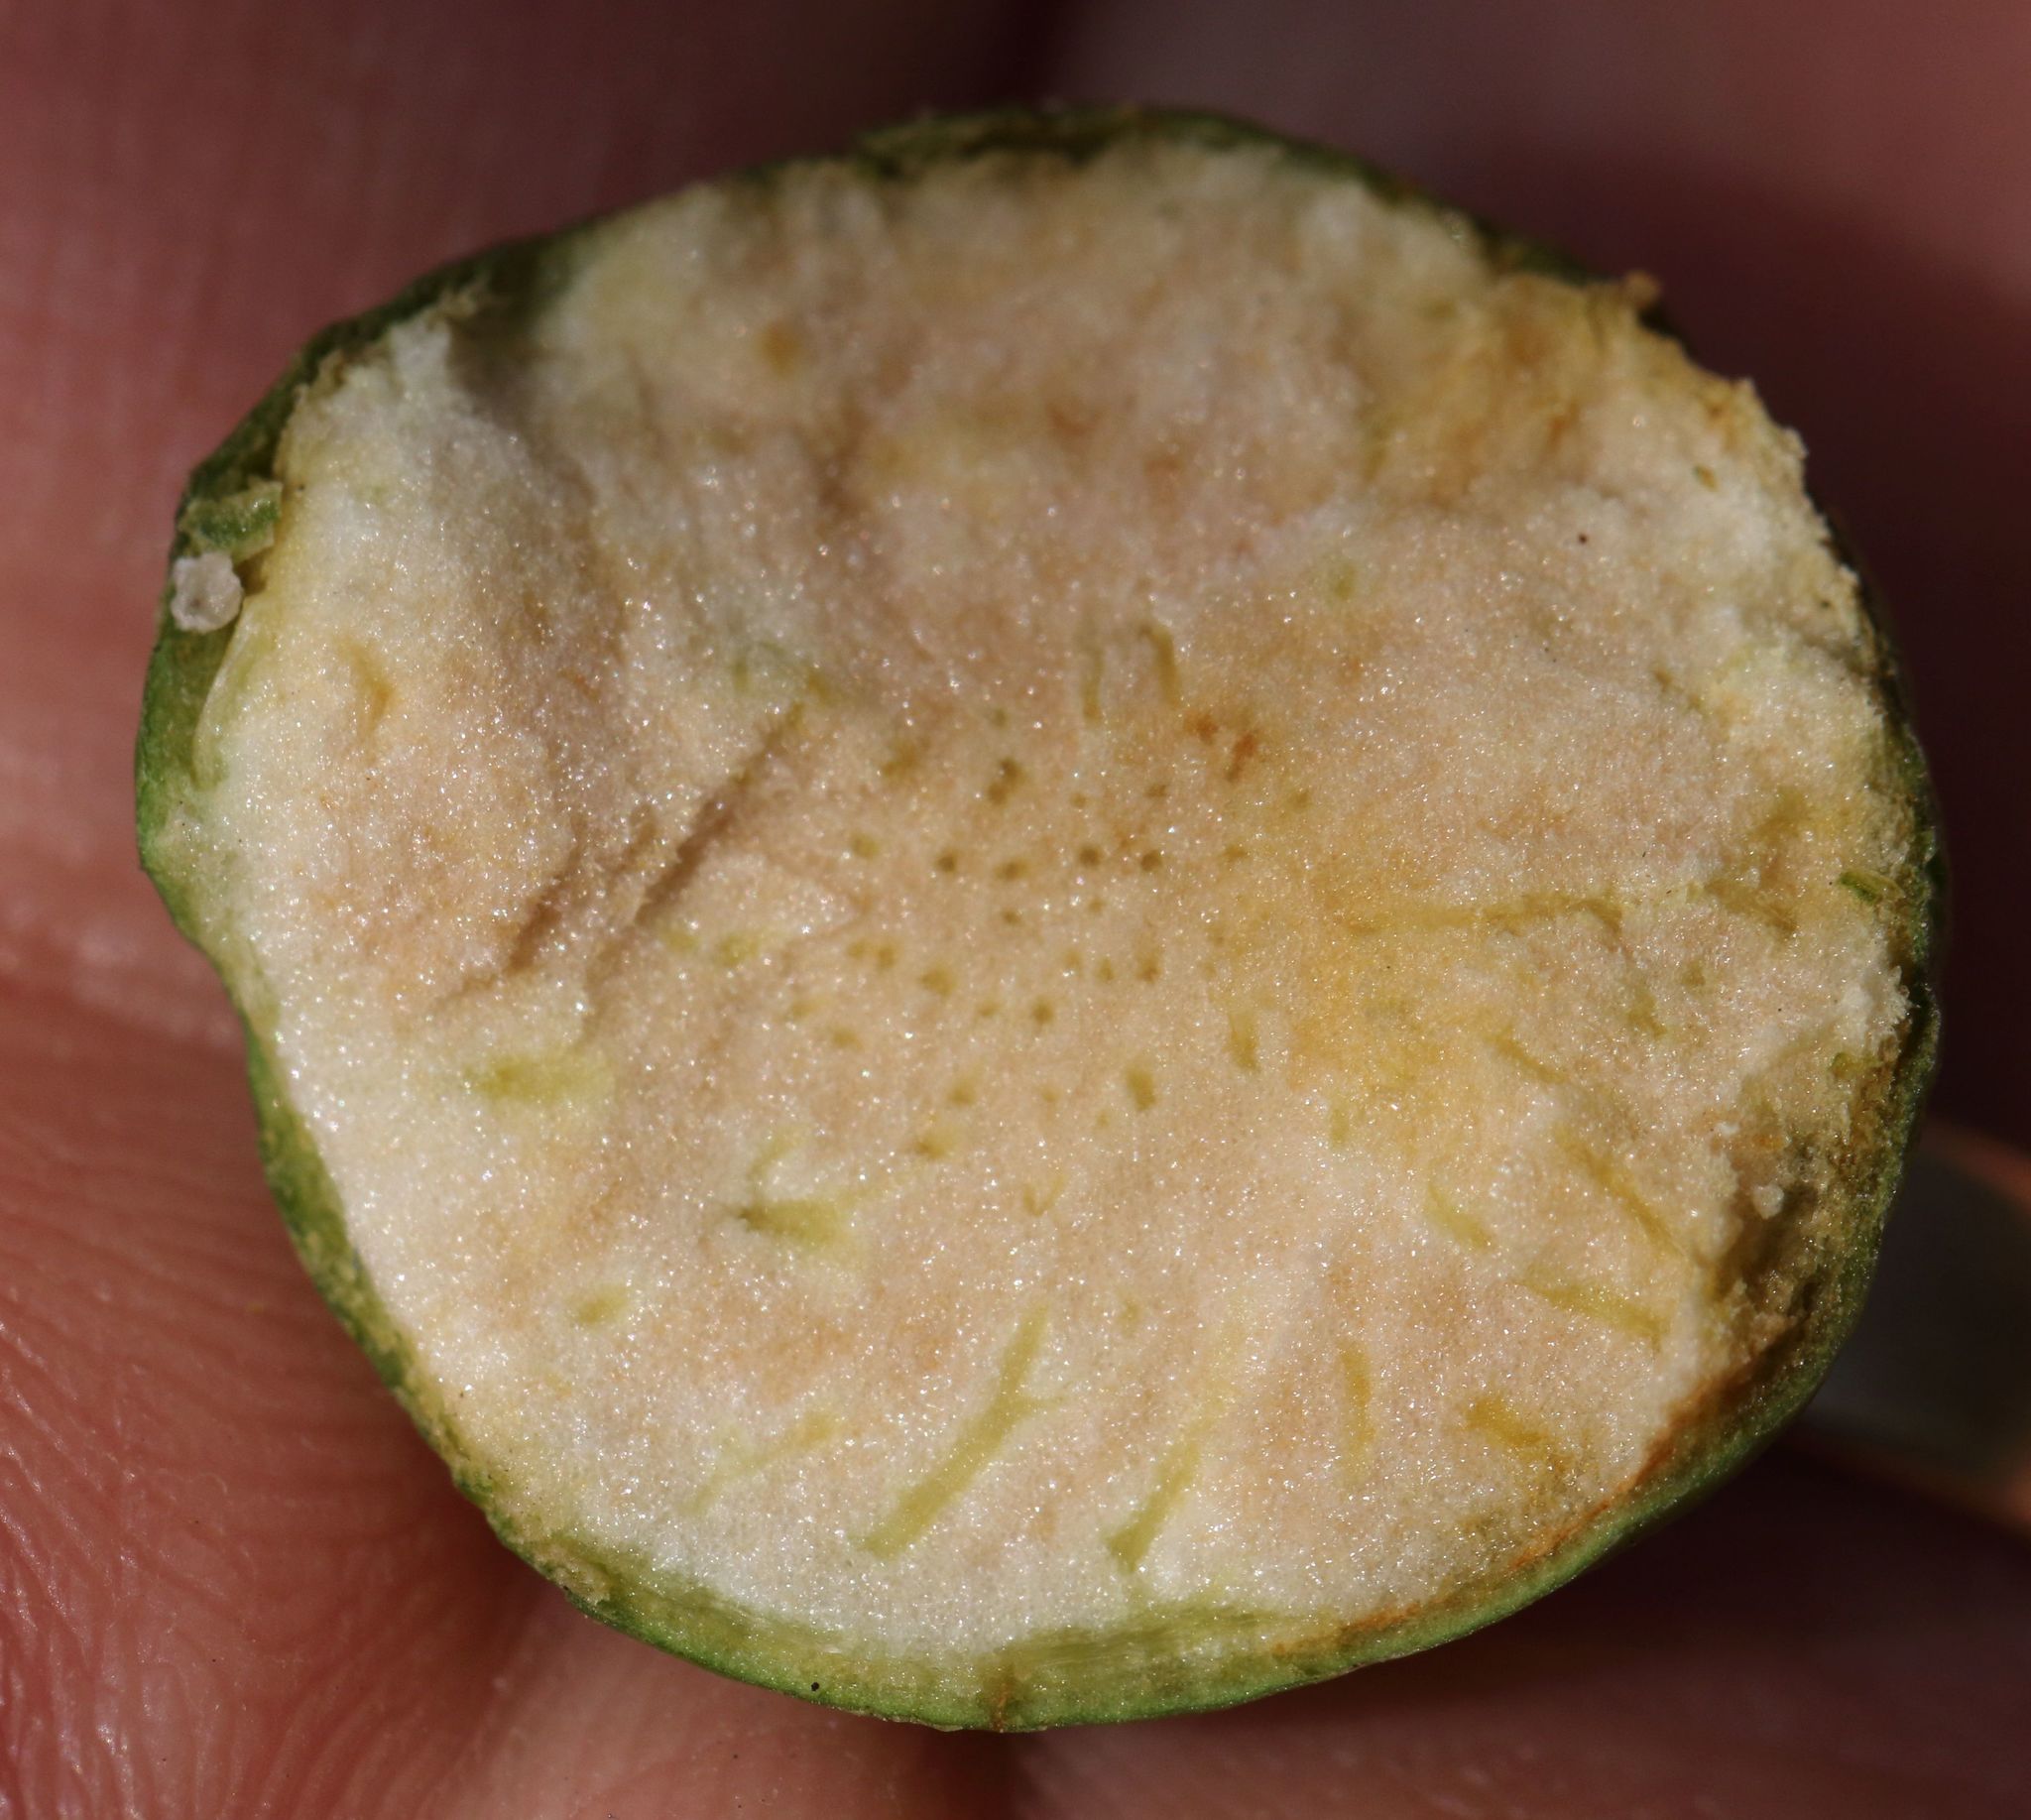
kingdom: Plantae
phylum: Tracheophyta
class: Magnoliopsida
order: Lamiales
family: Stilbaceae
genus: Halleria
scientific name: Halleria lucida
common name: Tree fuschia
